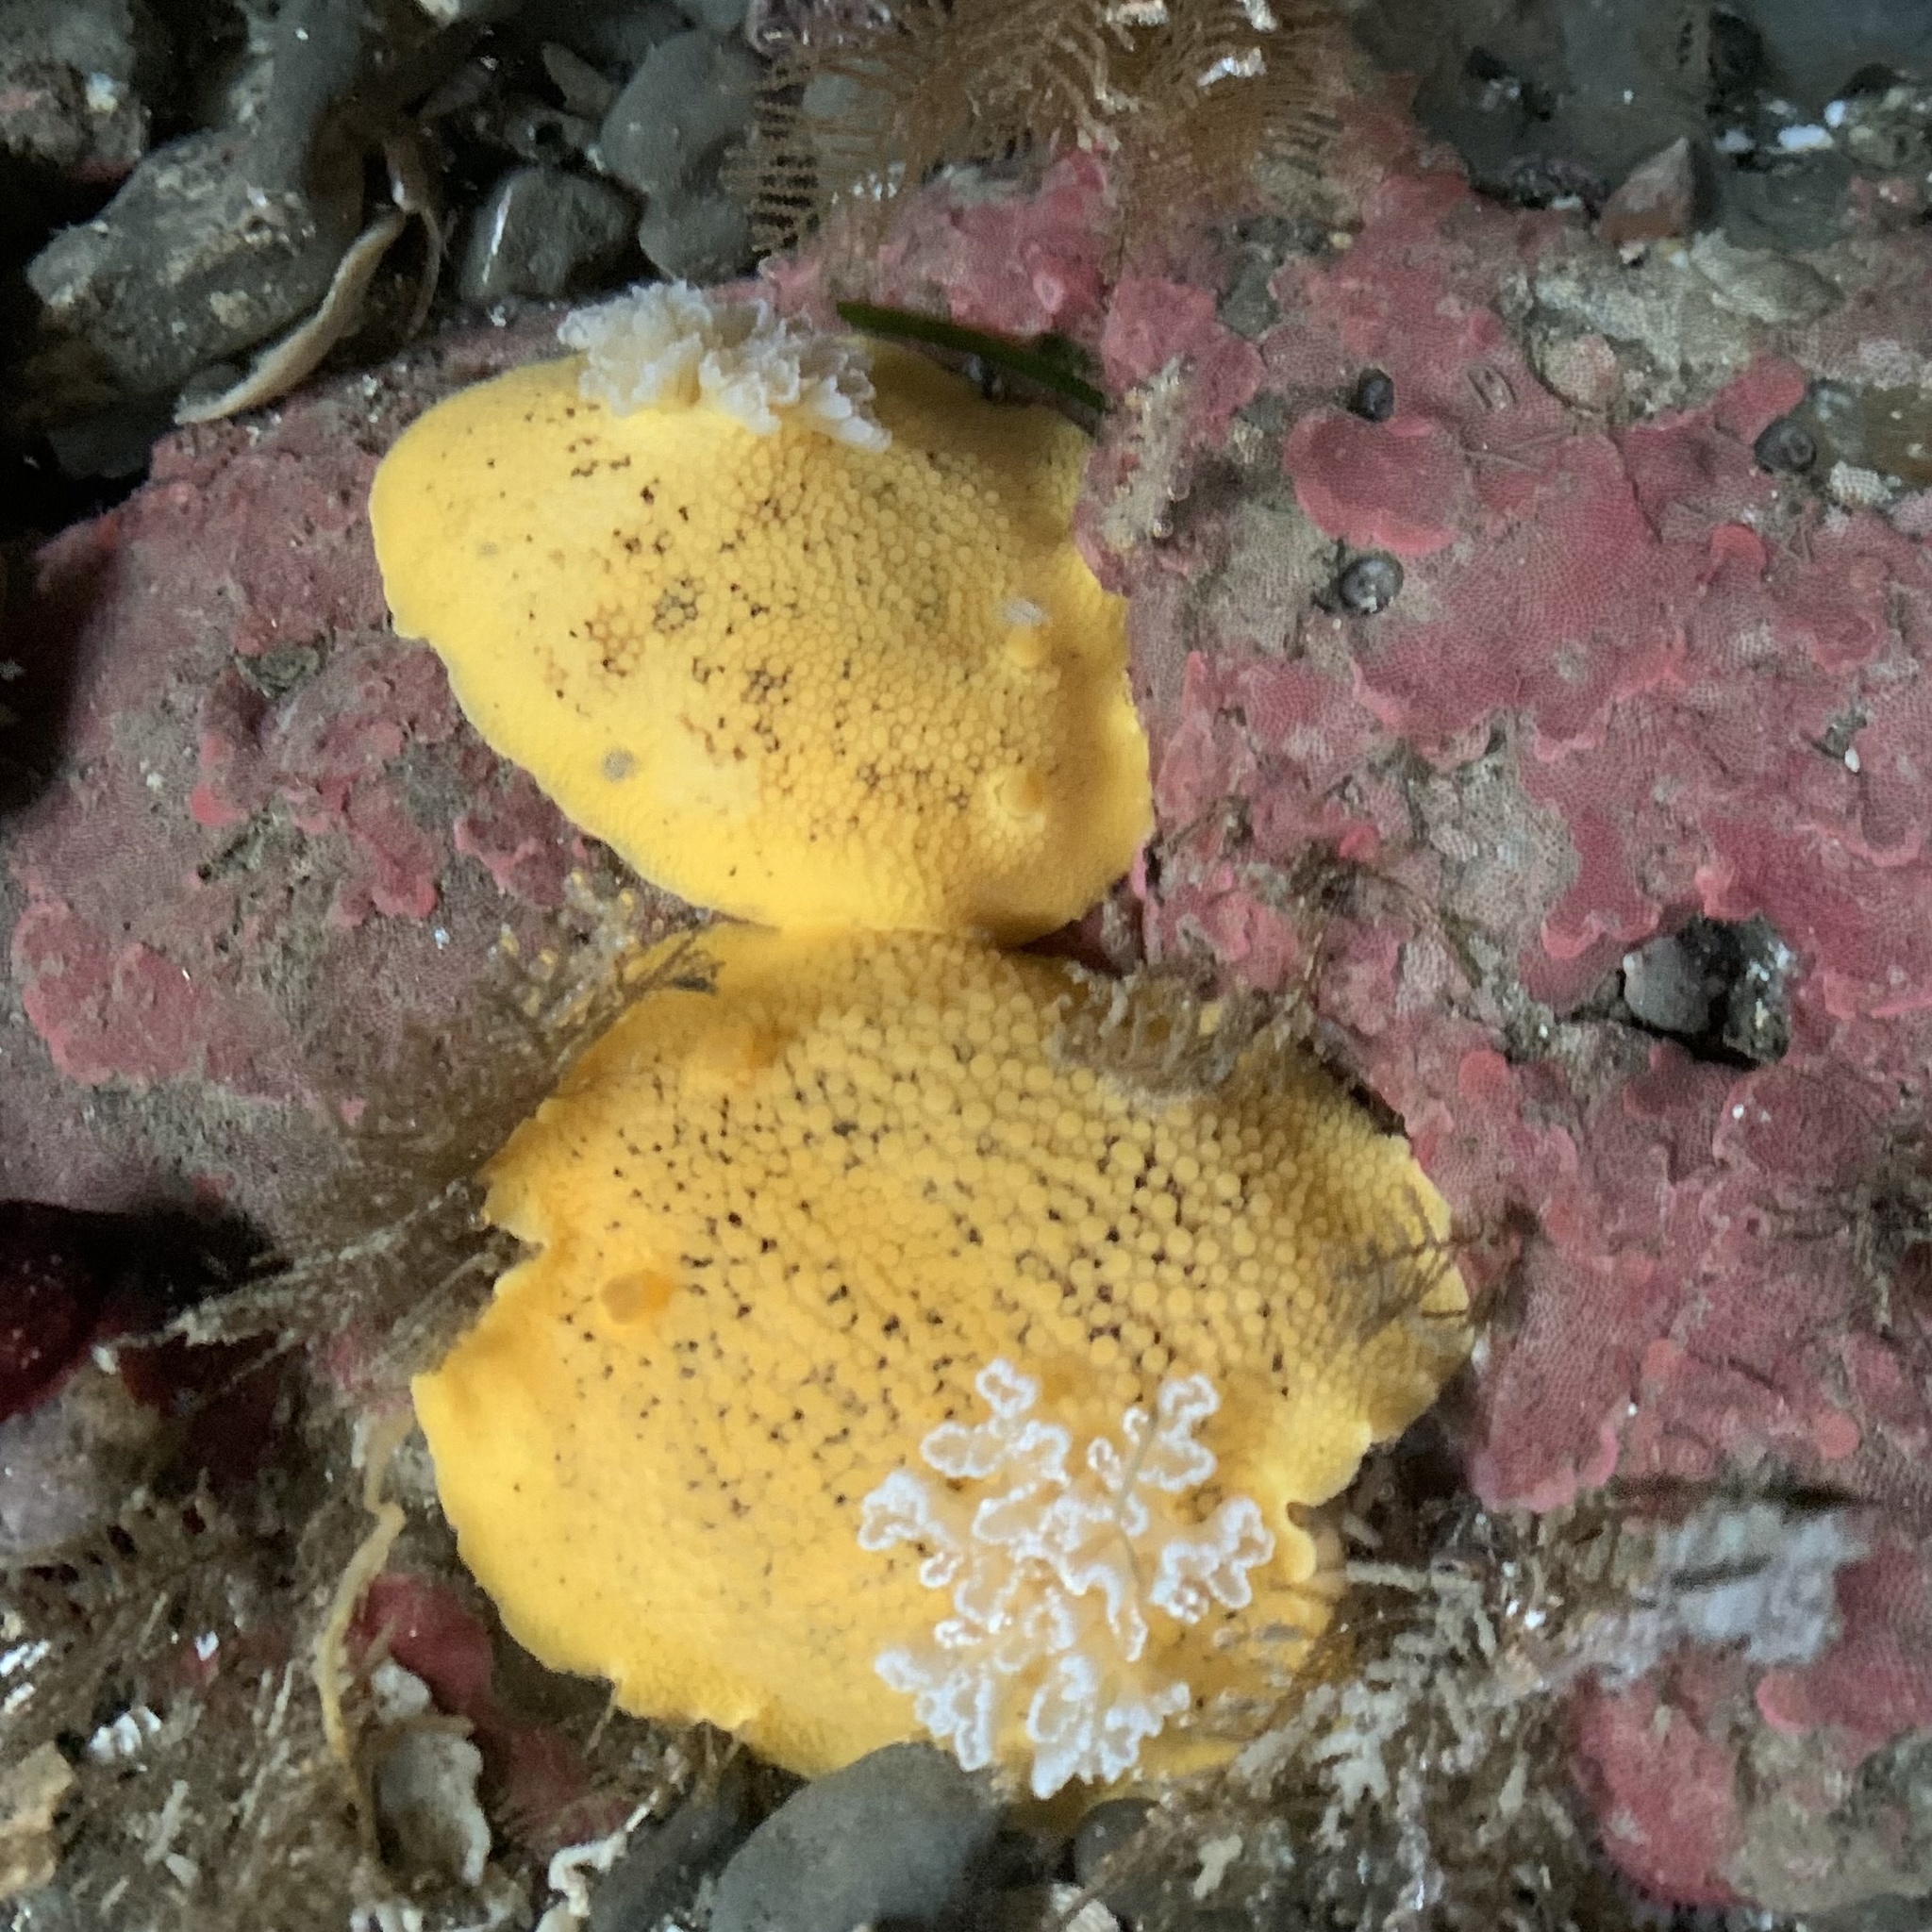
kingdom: Animalia
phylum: Mollusca
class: Gastropoda
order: Nudibranchia
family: Discodorididae
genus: Peltodoris
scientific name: Peltodoris nobilis
